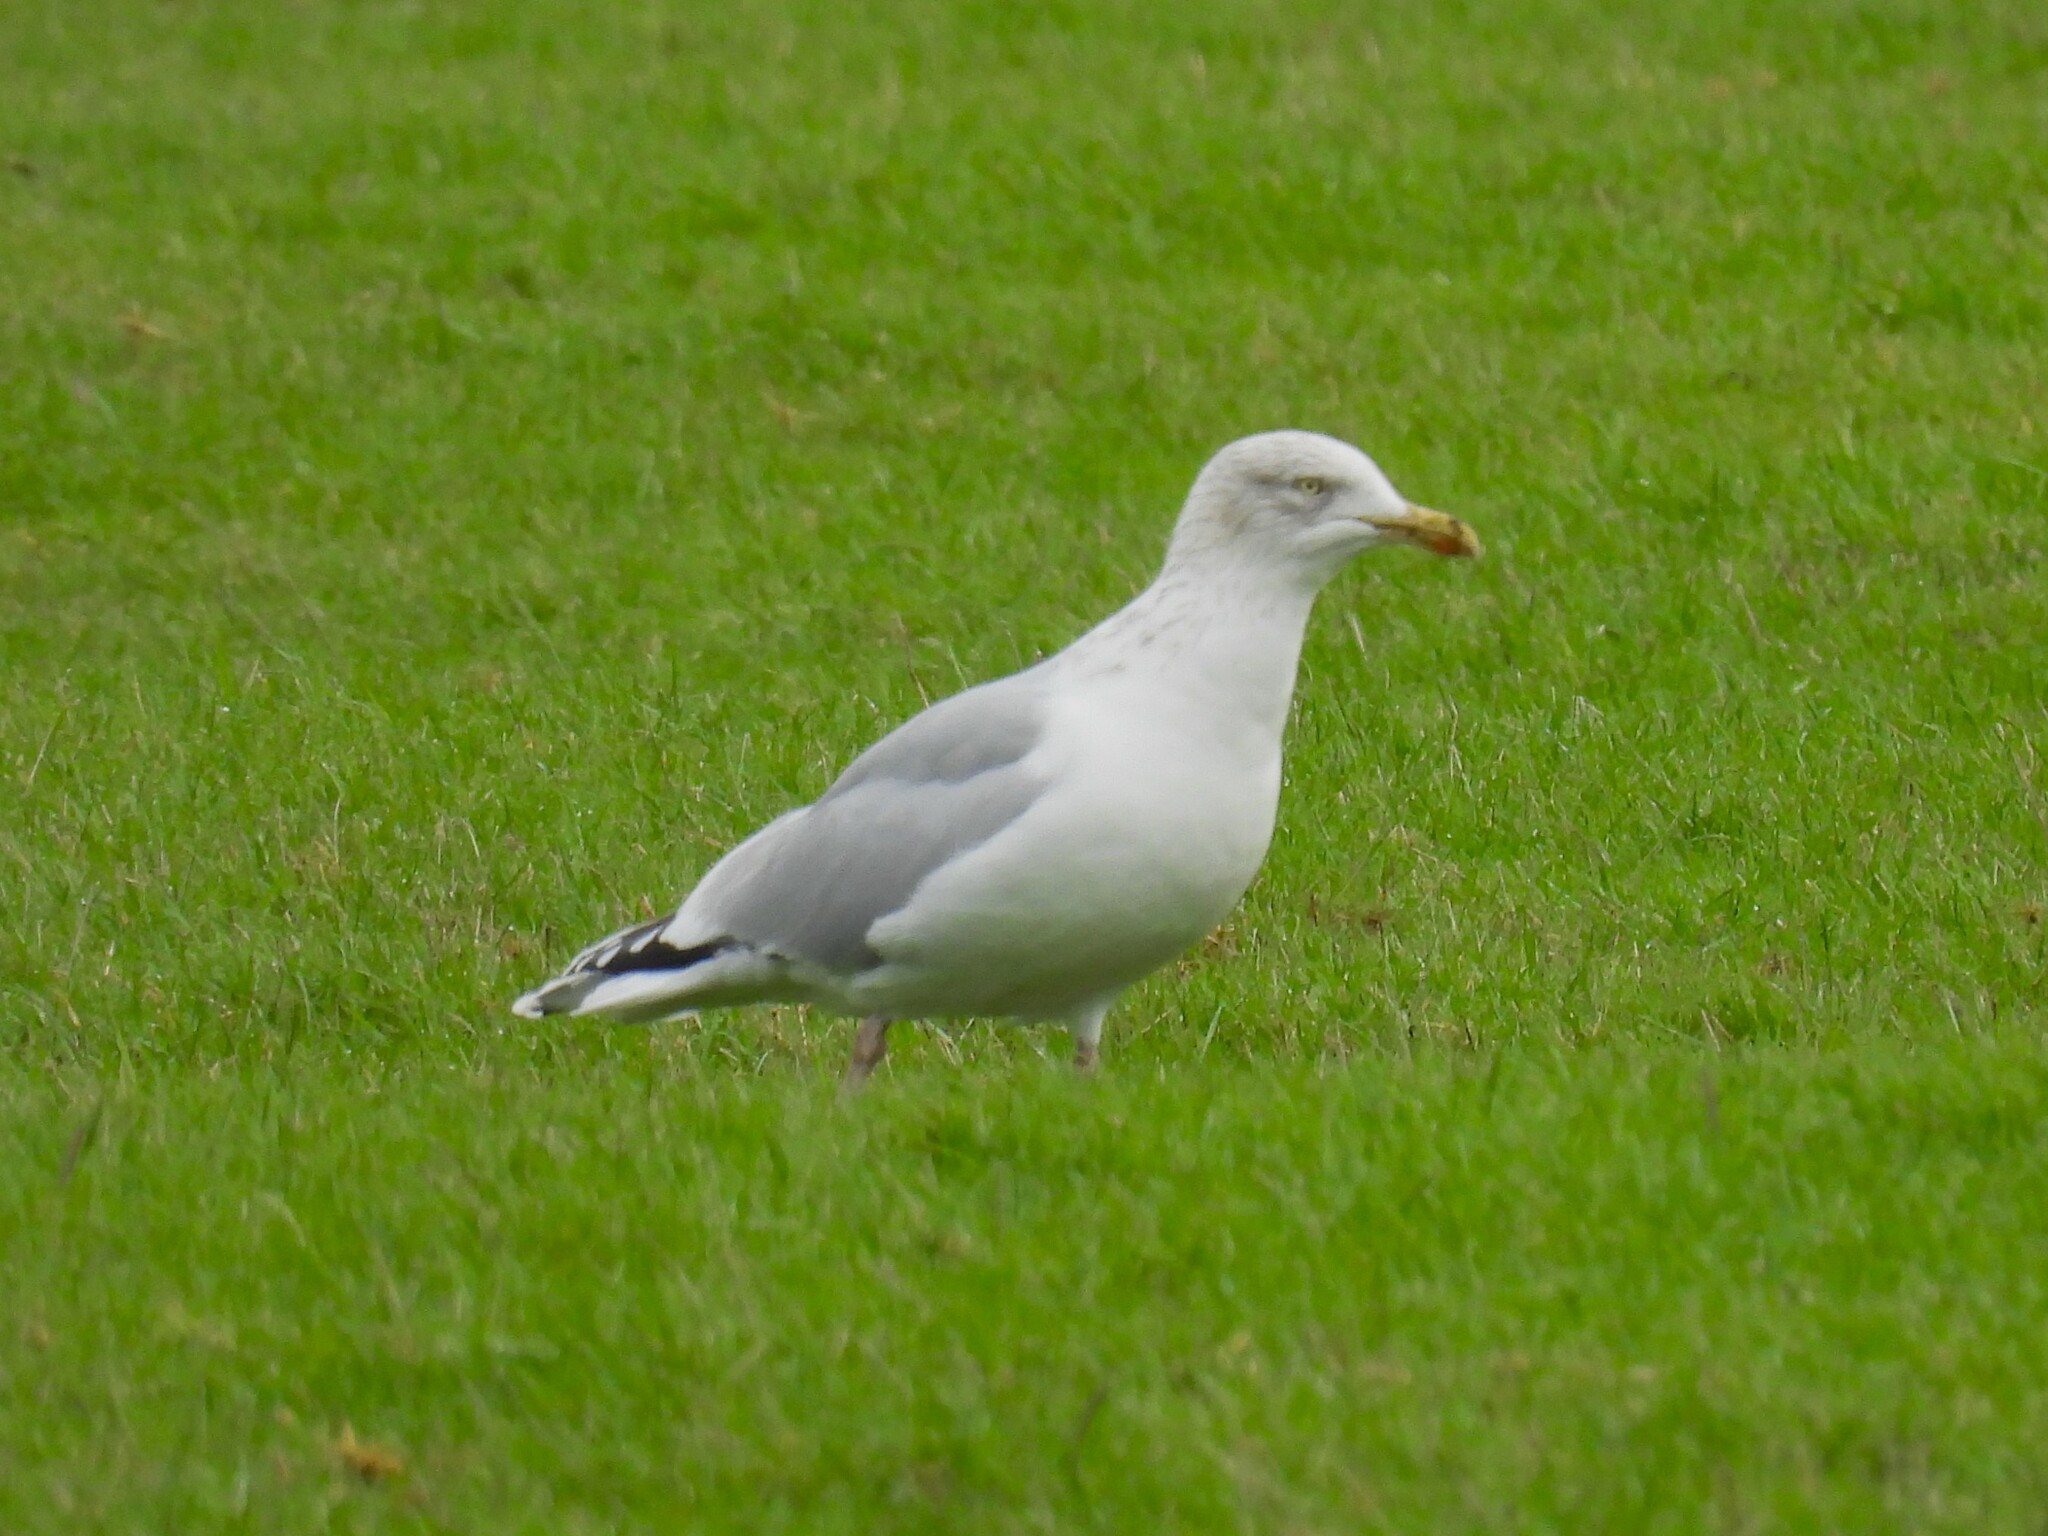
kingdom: Animalia
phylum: Chordata
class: Aves
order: Charadriiformes
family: Laridae
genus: Larus
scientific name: Larus argentatus
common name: Herring gull
